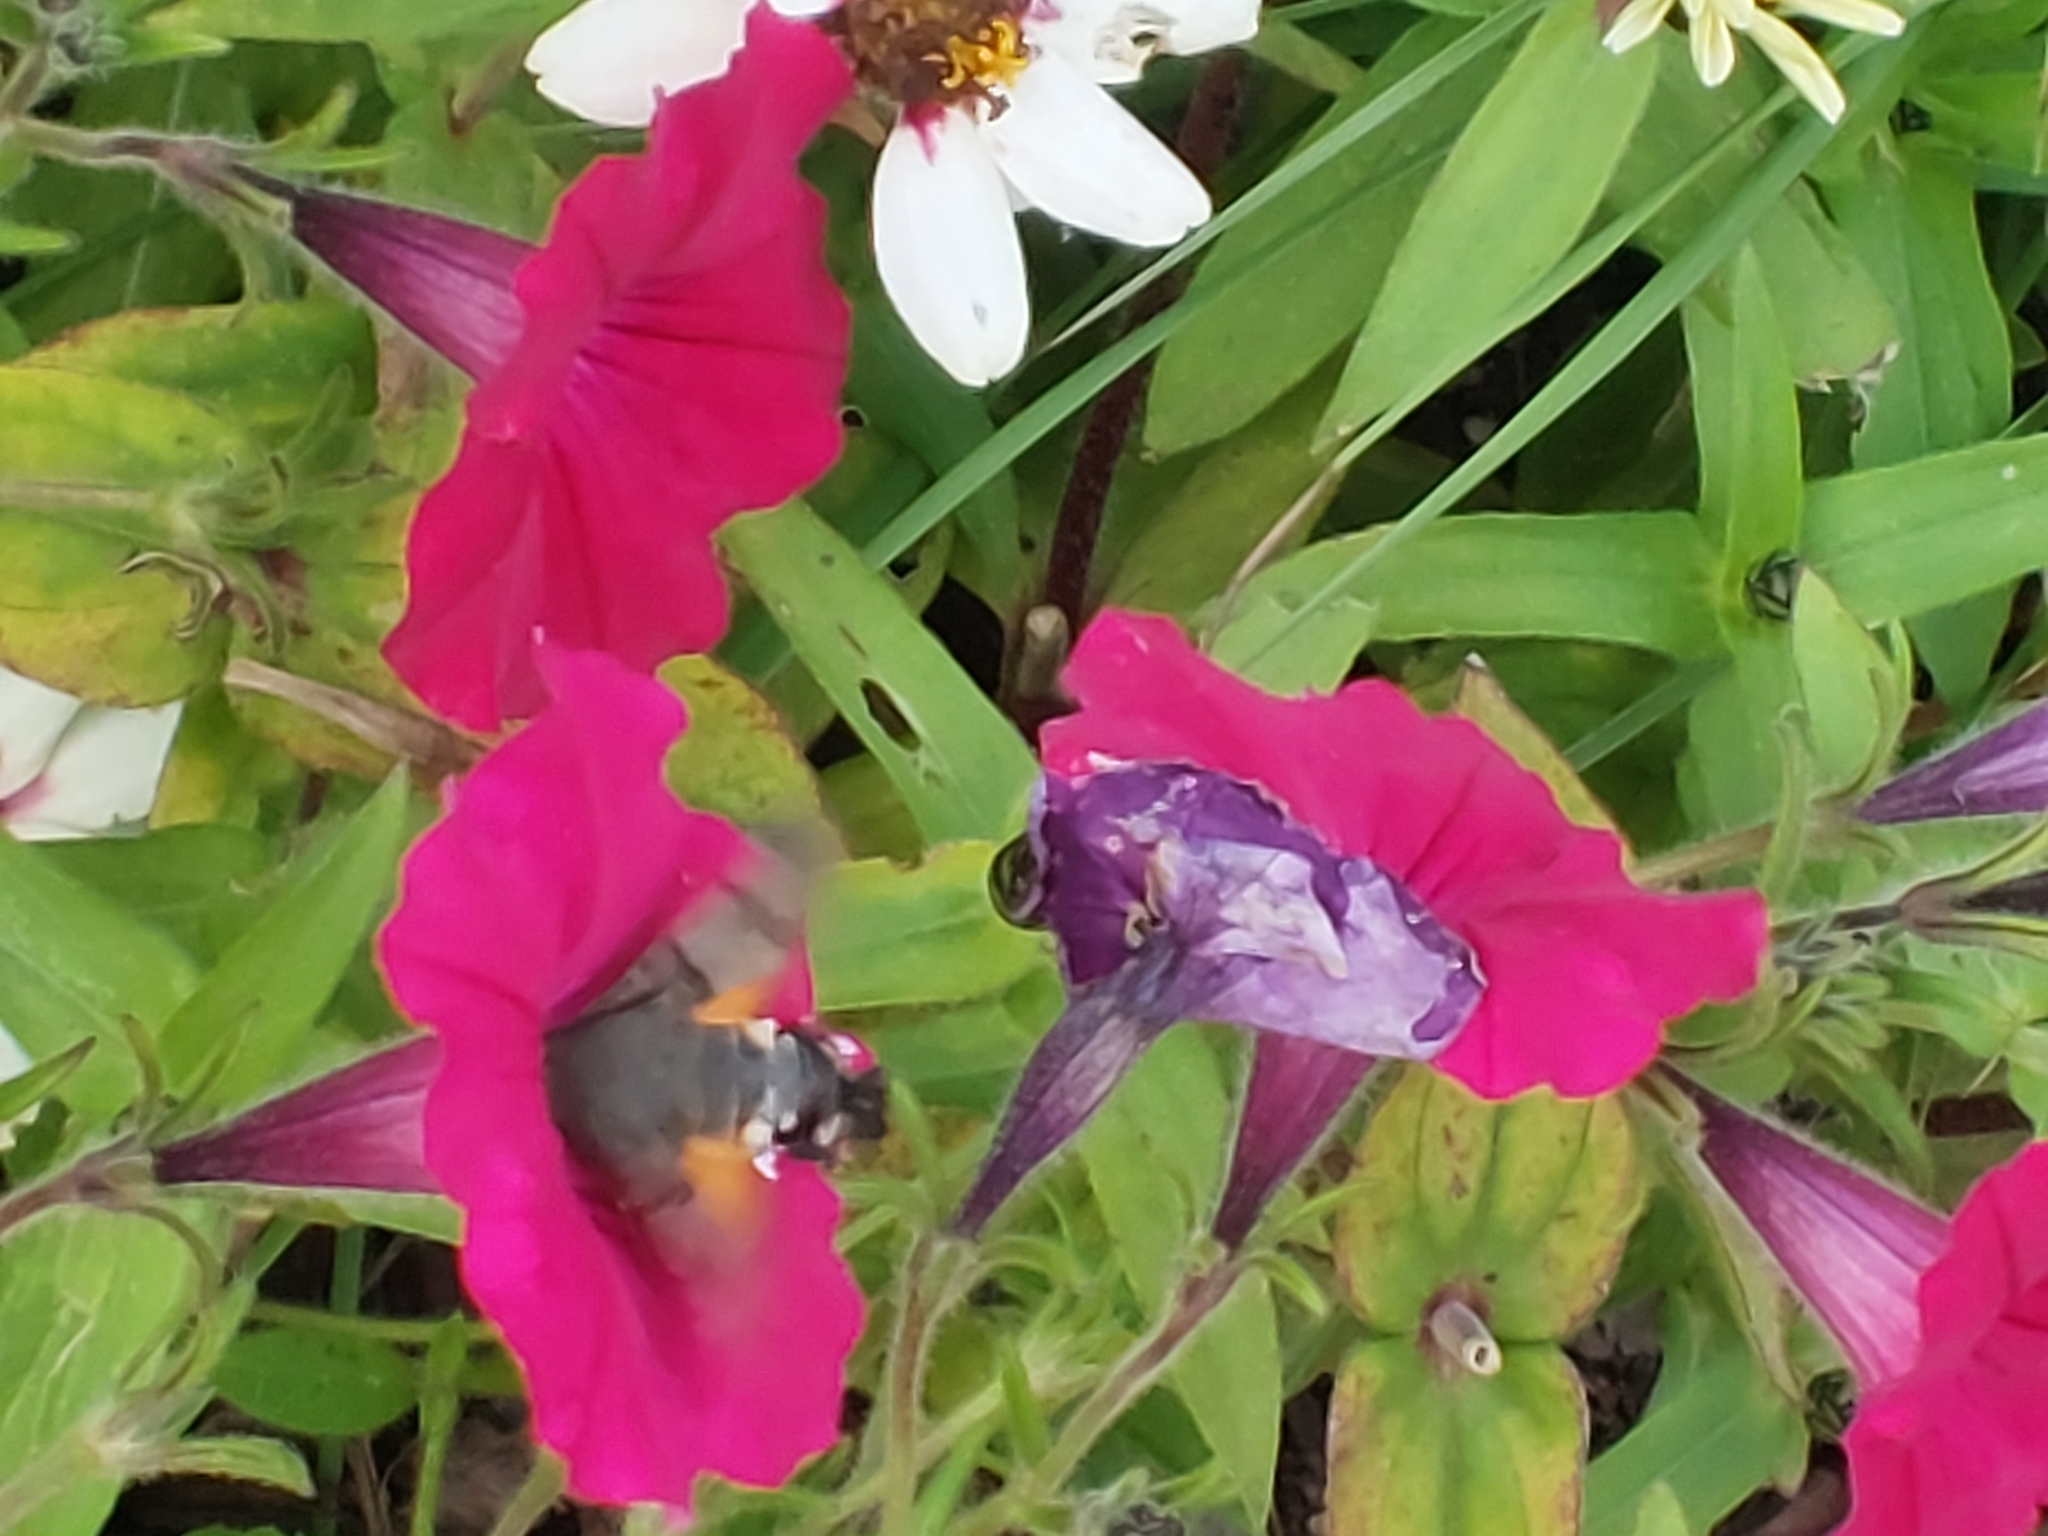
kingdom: Animalia
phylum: Arthropoda
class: Insecta
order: Lepidoptera
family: Sphingidae
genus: Macroglossum
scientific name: Macroglossum stellatarum
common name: Humming-bird hawk-moth
